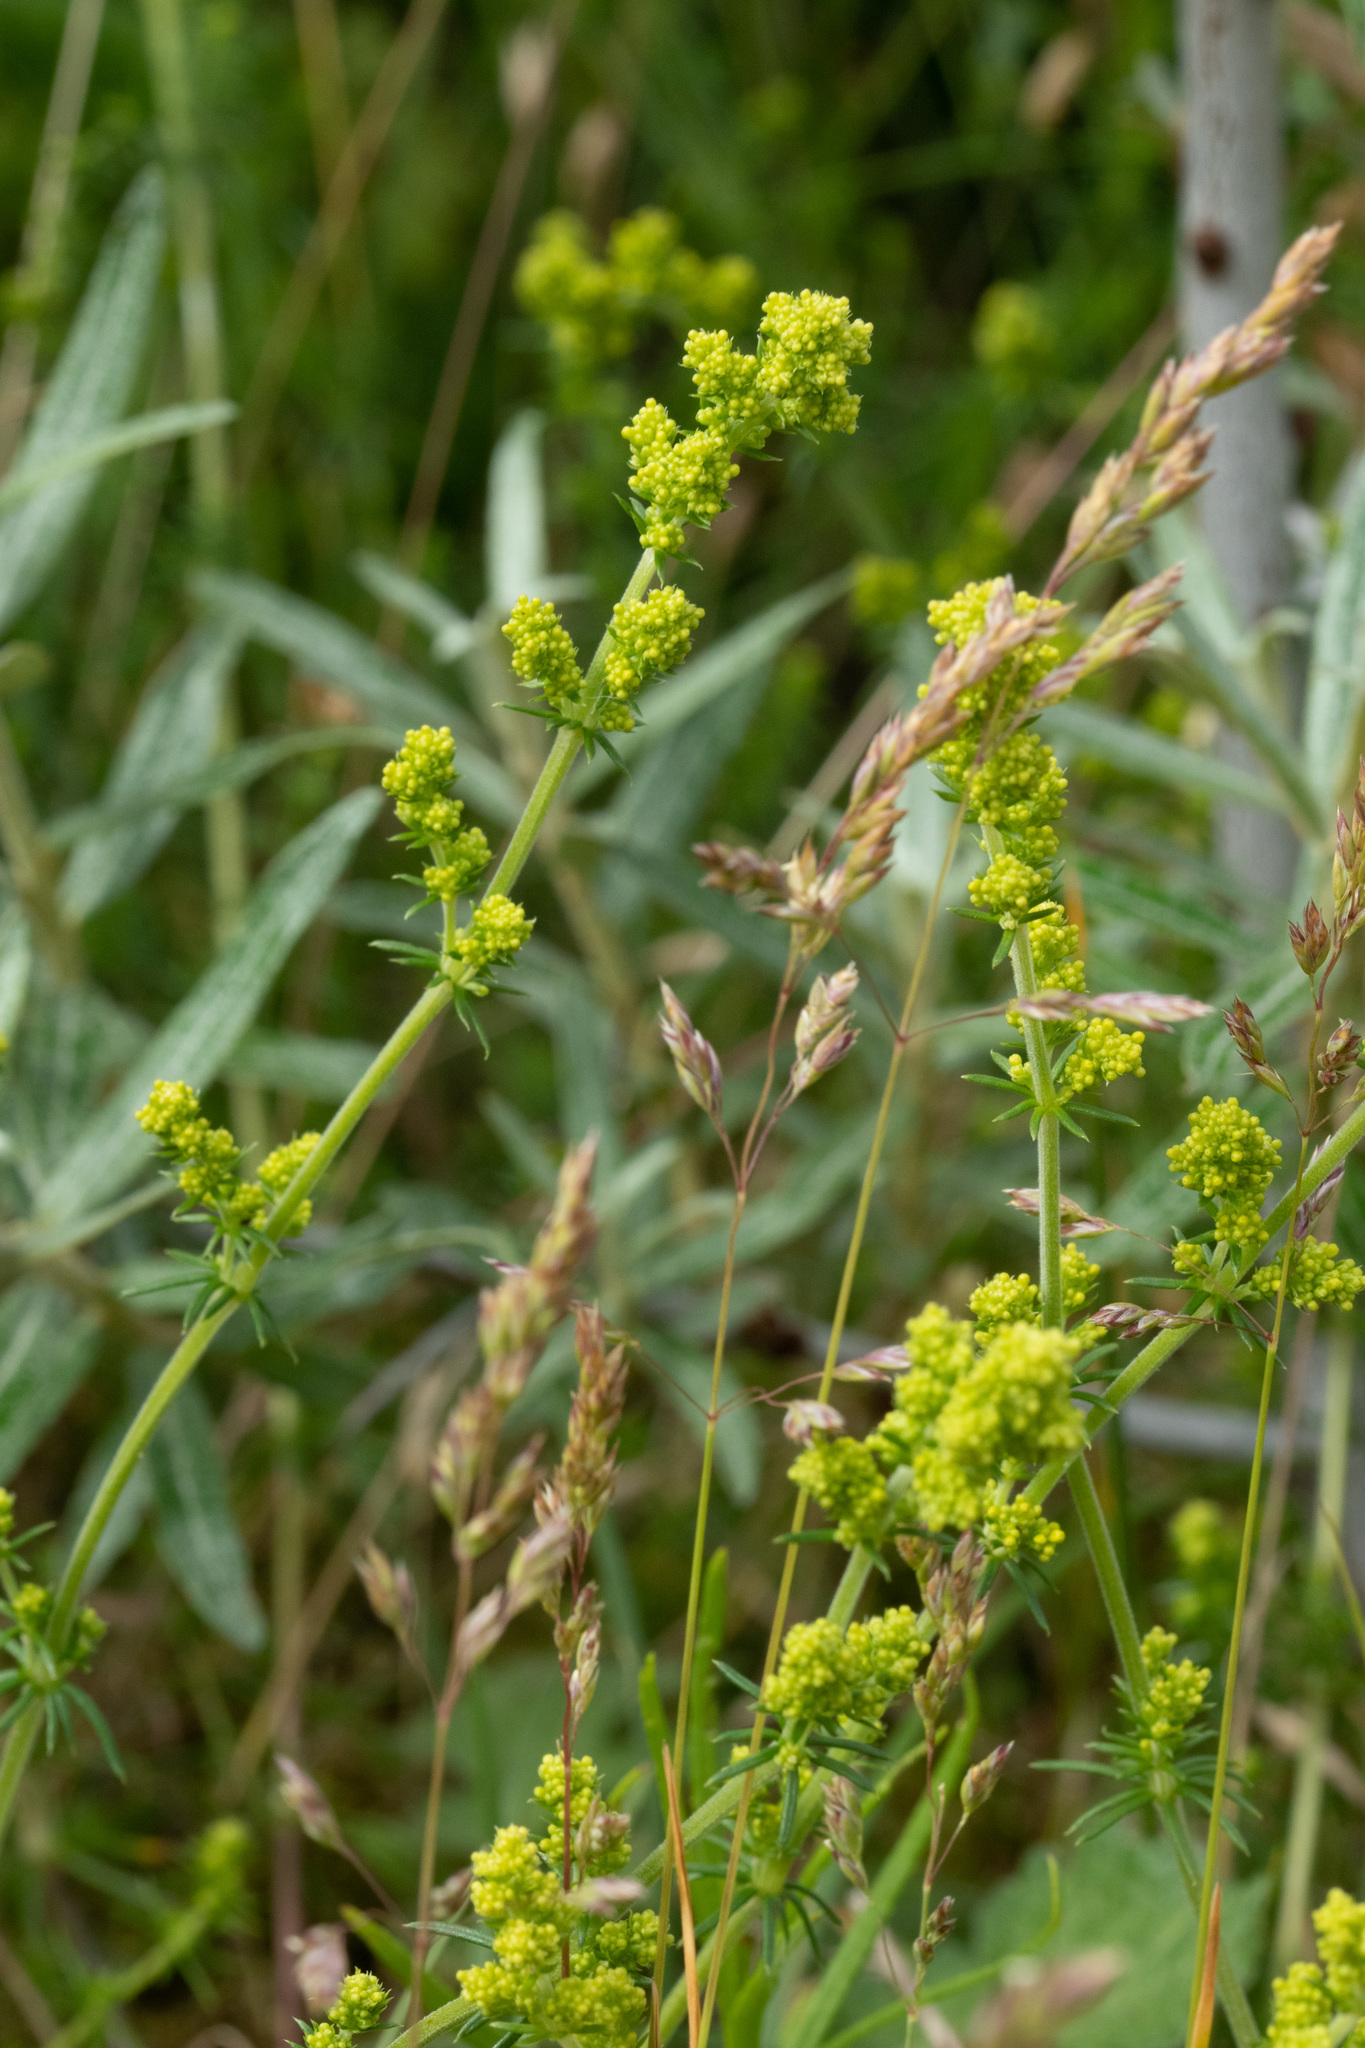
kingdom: Plantae
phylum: Tracheophyta
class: Magnoliopsida
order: Gentianales
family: Rubiaceae
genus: Galium
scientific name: Galium verum
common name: Lady's bedstraw
